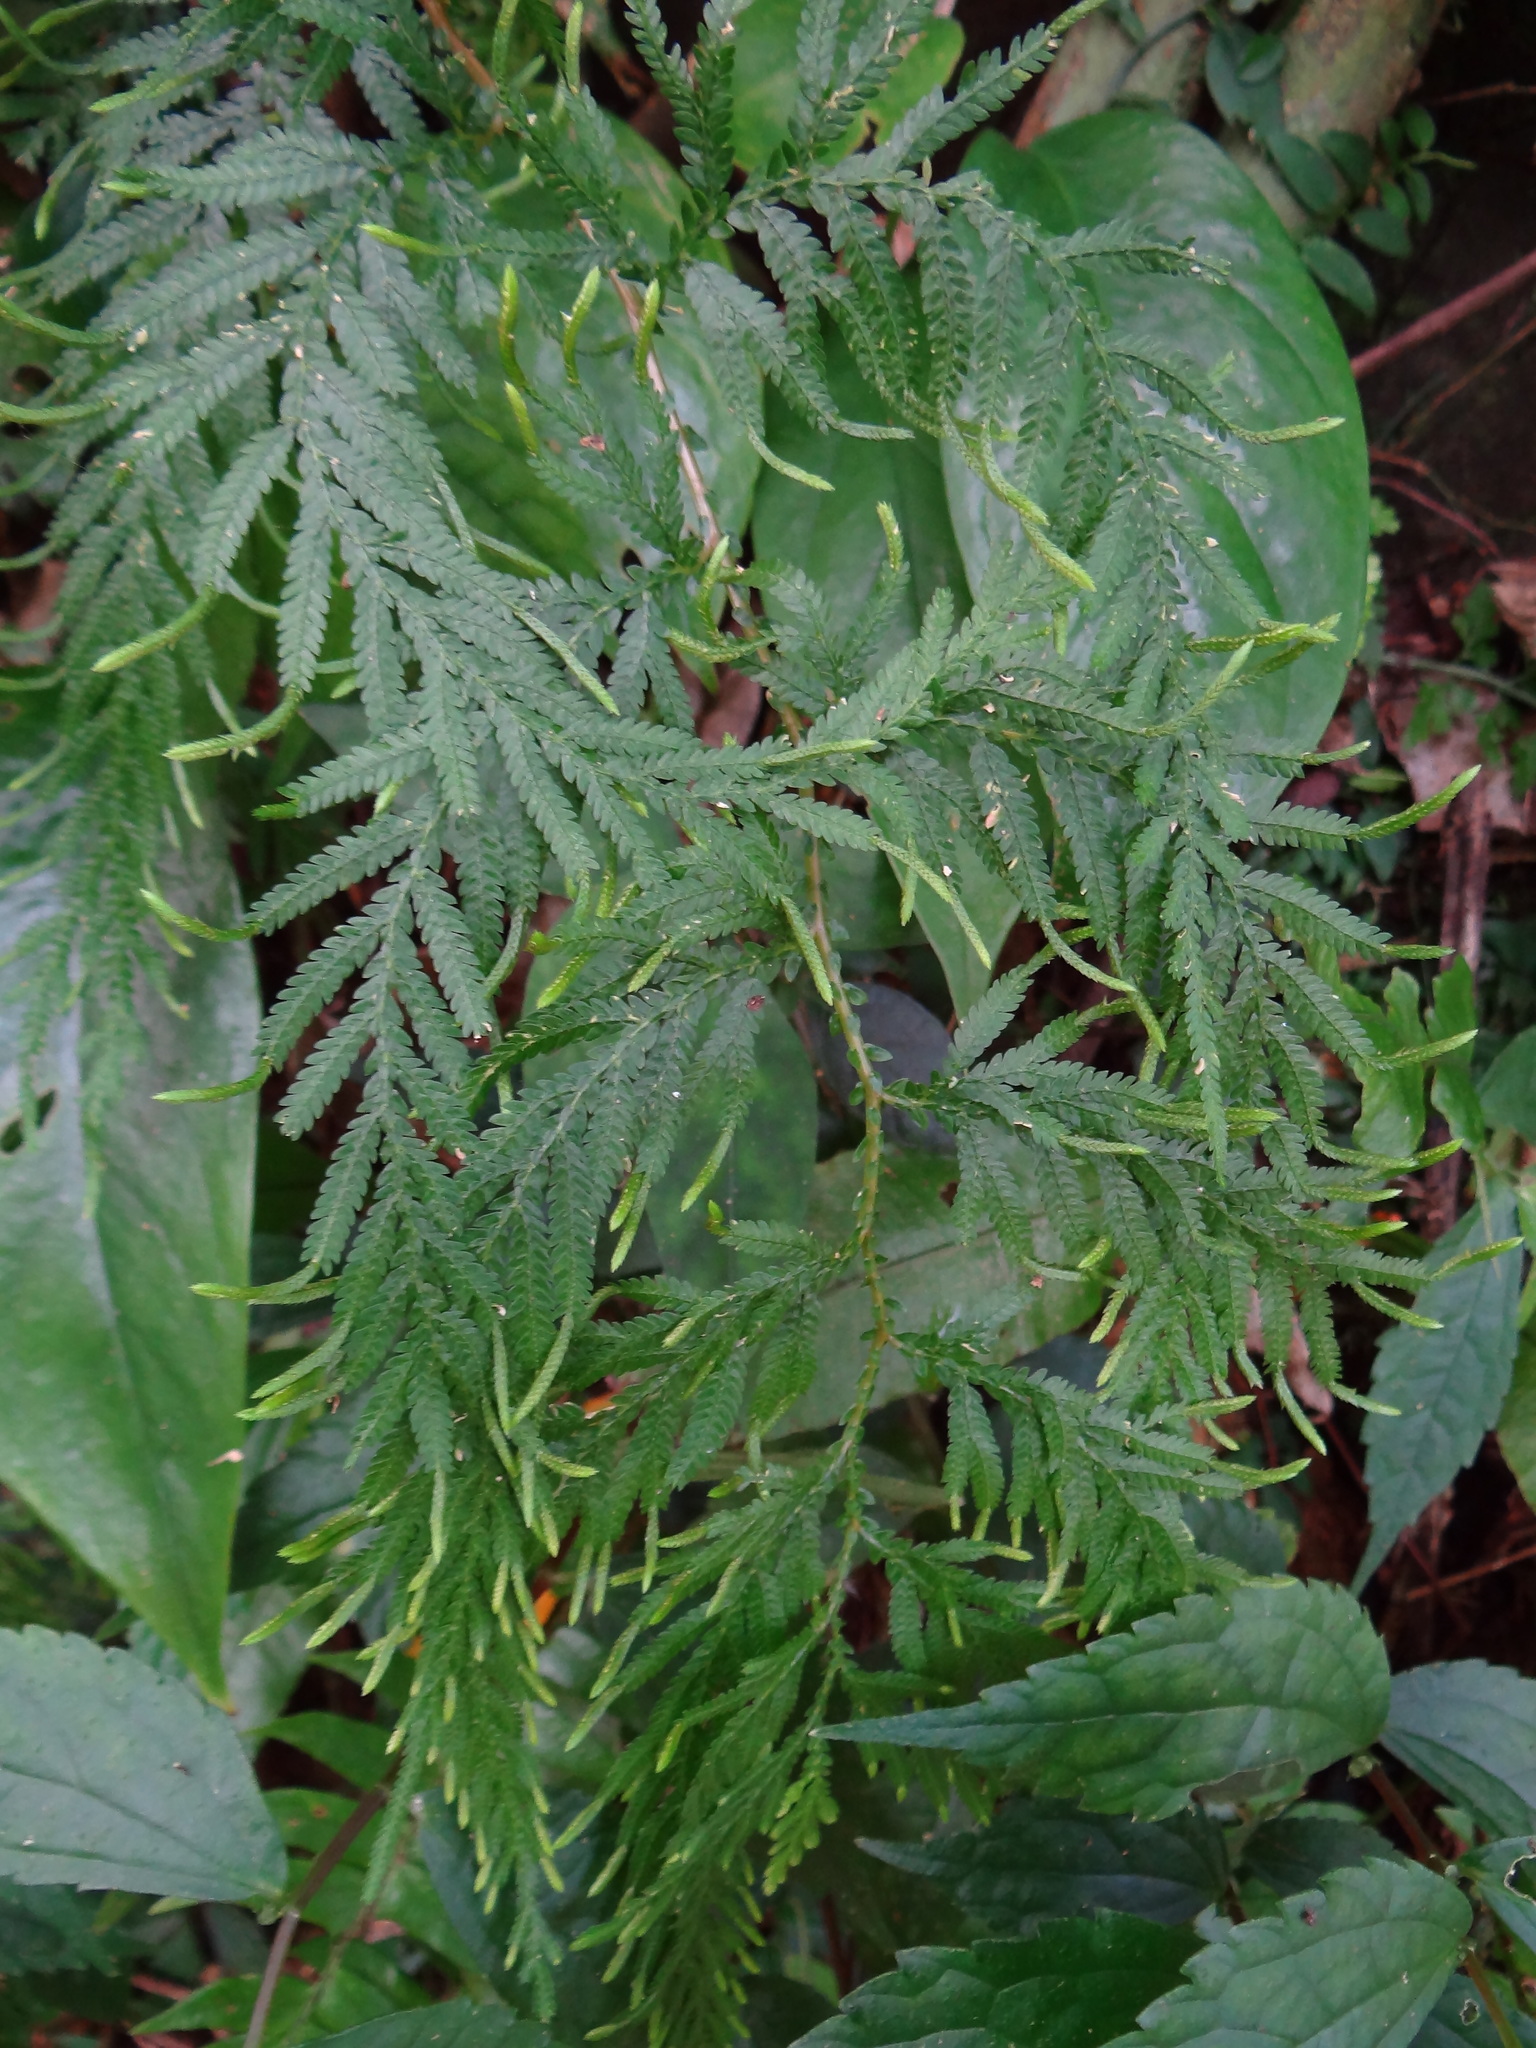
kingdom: Plantae
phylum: Tracheophyta
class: Lycopodiopsida
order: Selaginellales
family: Selaginellaceae
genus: Selaginella
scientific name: Selaginella delicatula
